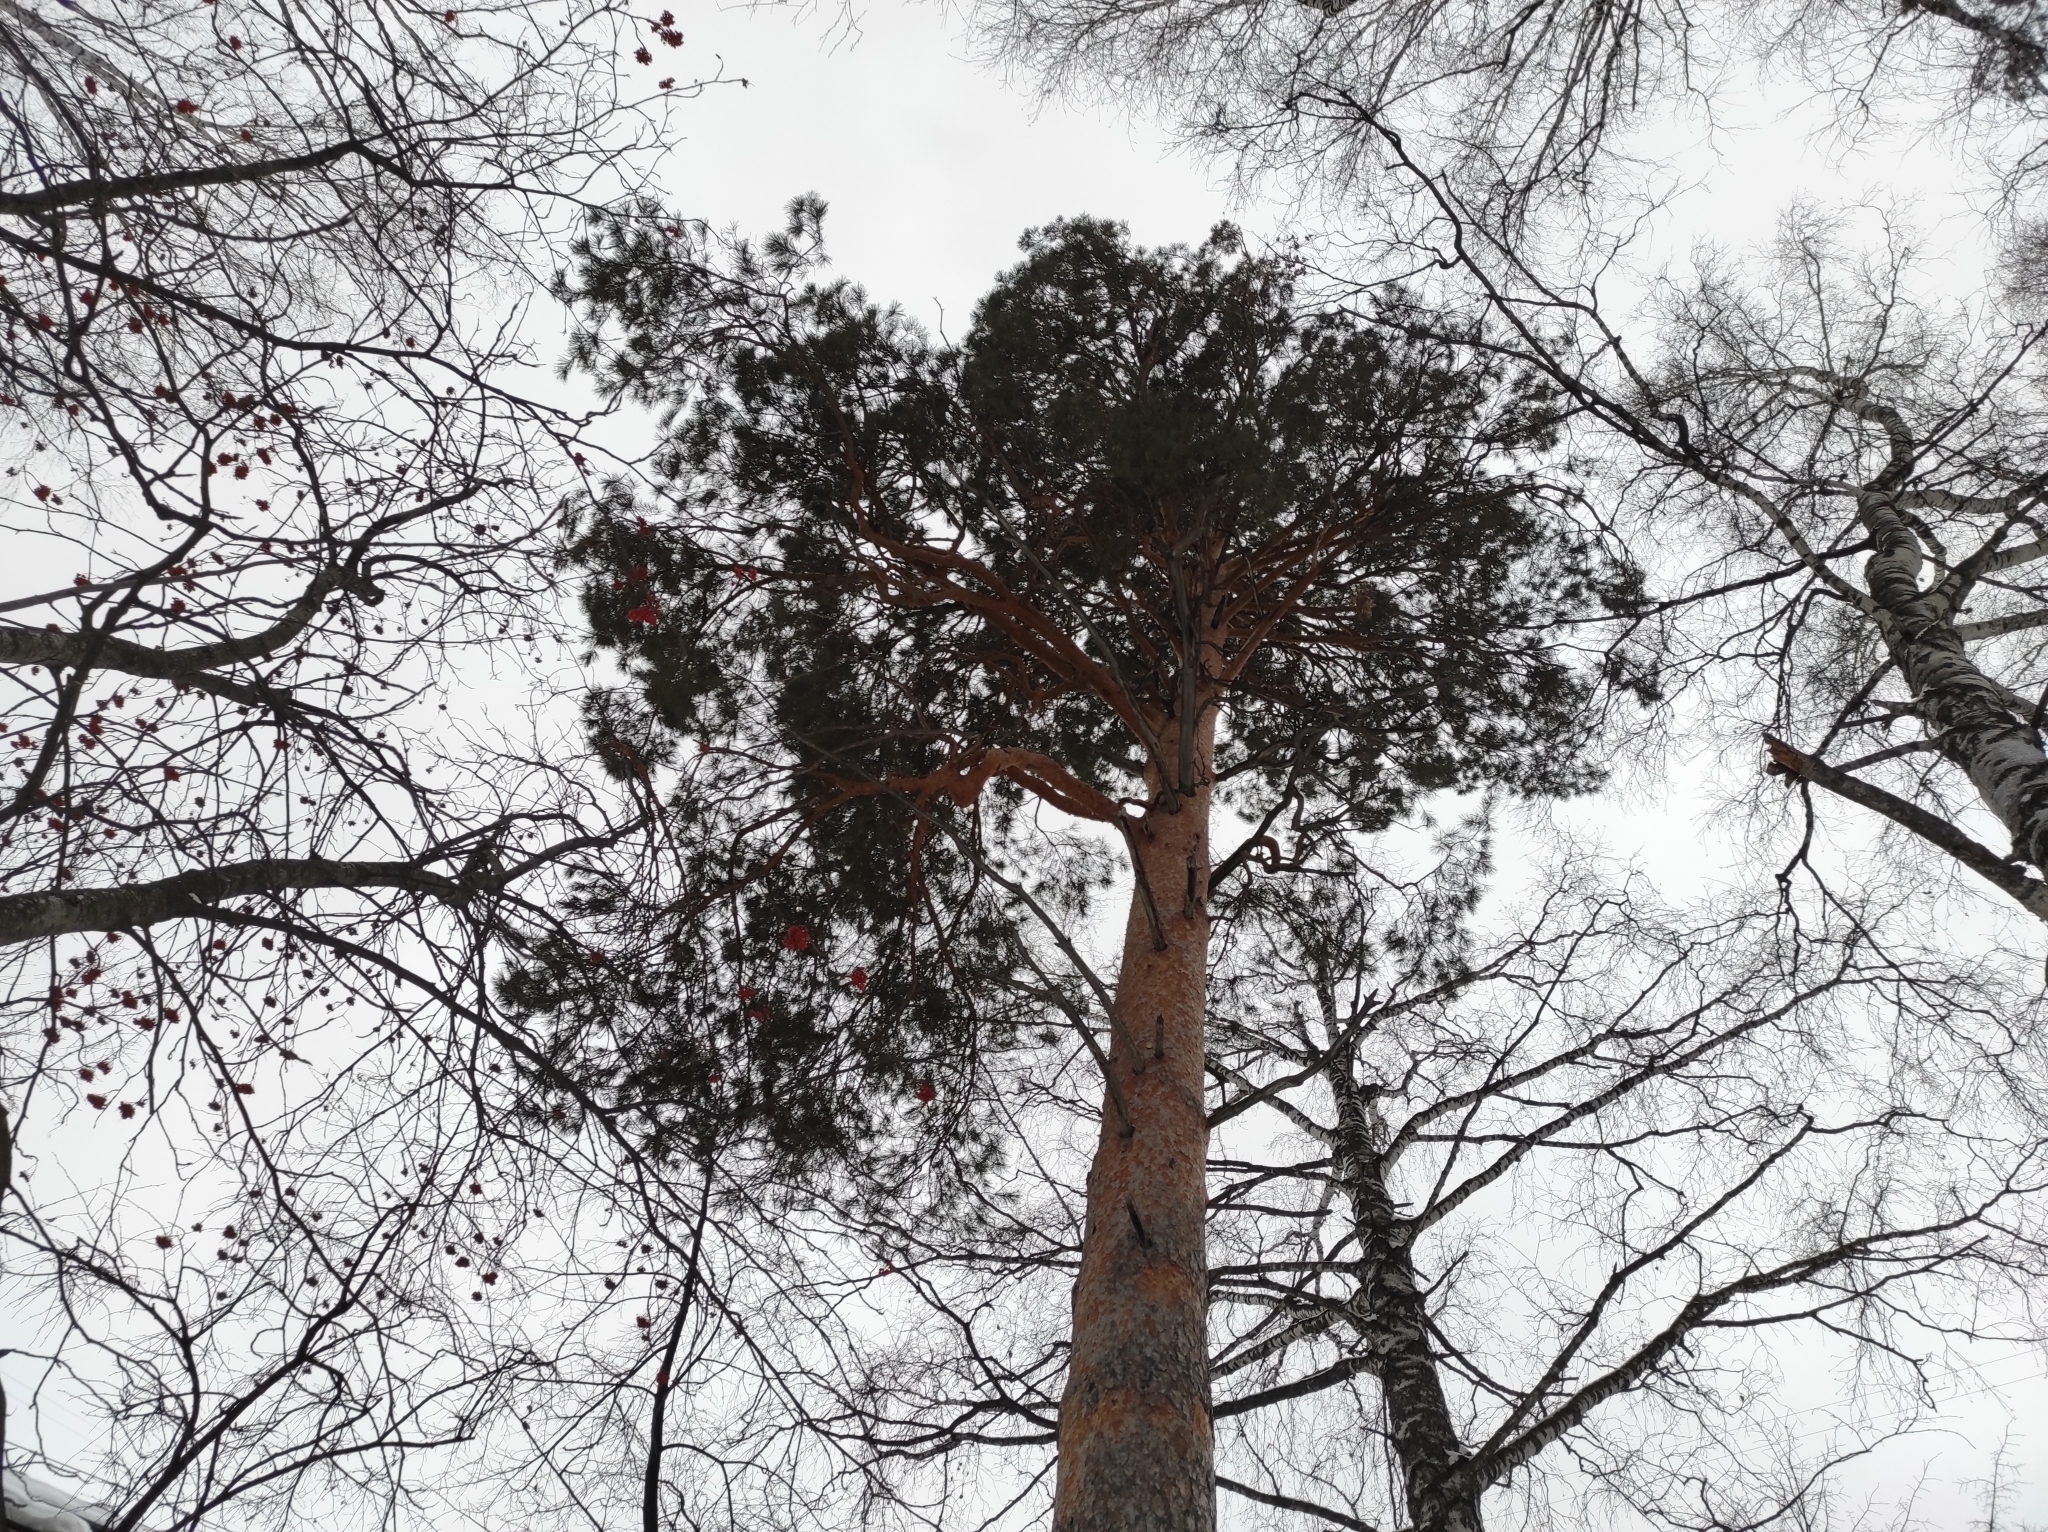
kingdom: Plantae
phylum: Tracheophyta
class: Pinopsida
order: Pinales
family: Pinaceae
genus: Pinus
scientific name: Pinus sylvestris
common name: Scots pine
